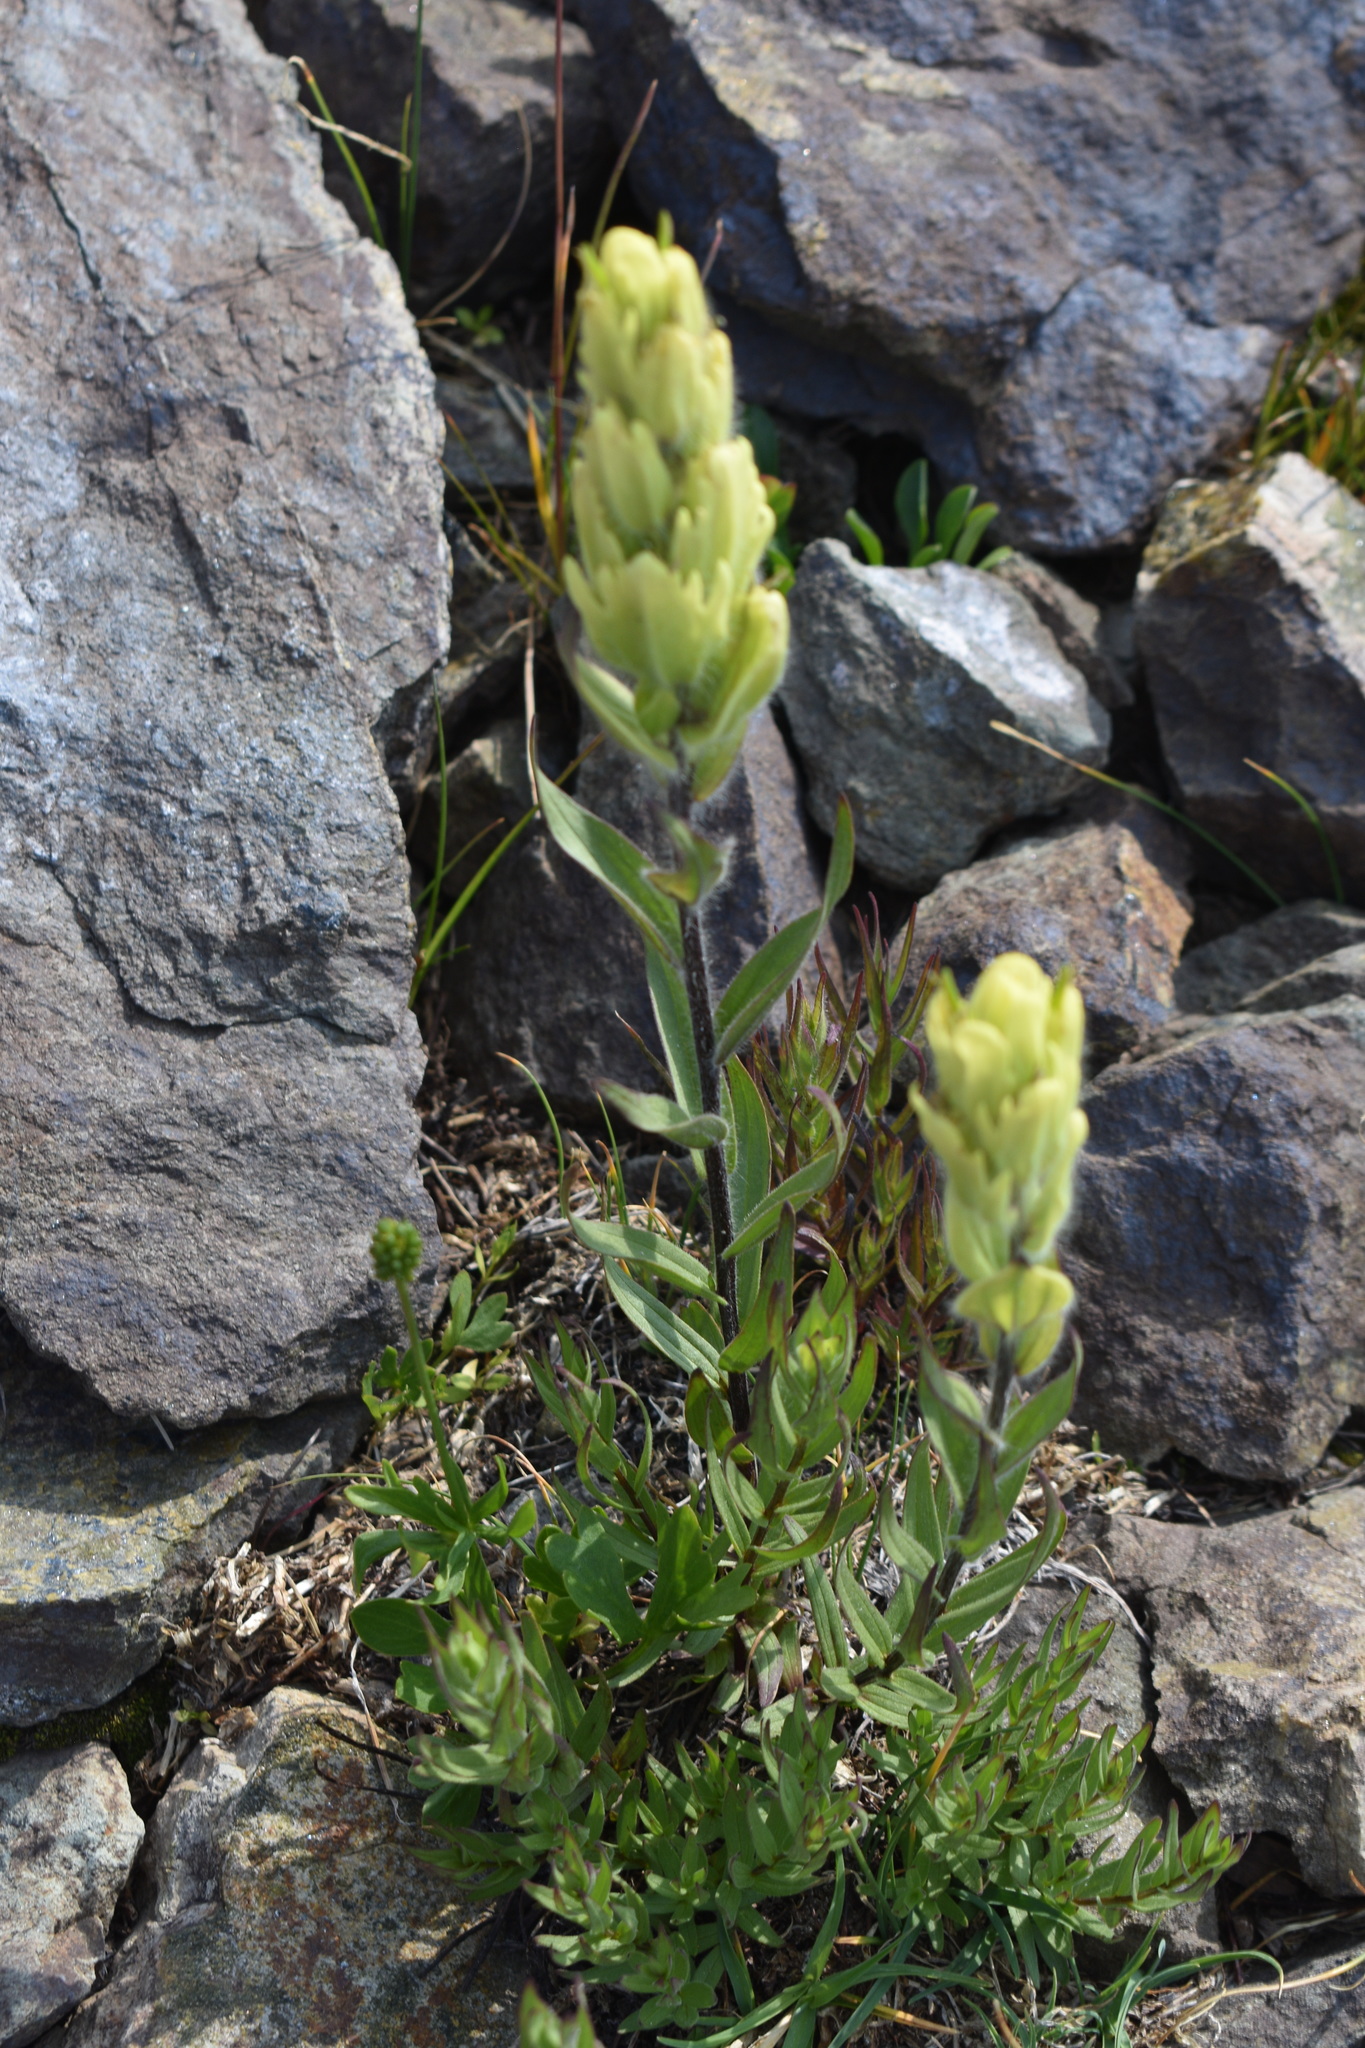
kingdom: Plantae
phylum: Tracheophyta
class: Magnoliopsida
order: Lamiales
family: Orobanchaceae
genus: Castilleja
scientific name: Castilleja occidentalis
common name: Western paintbrush
